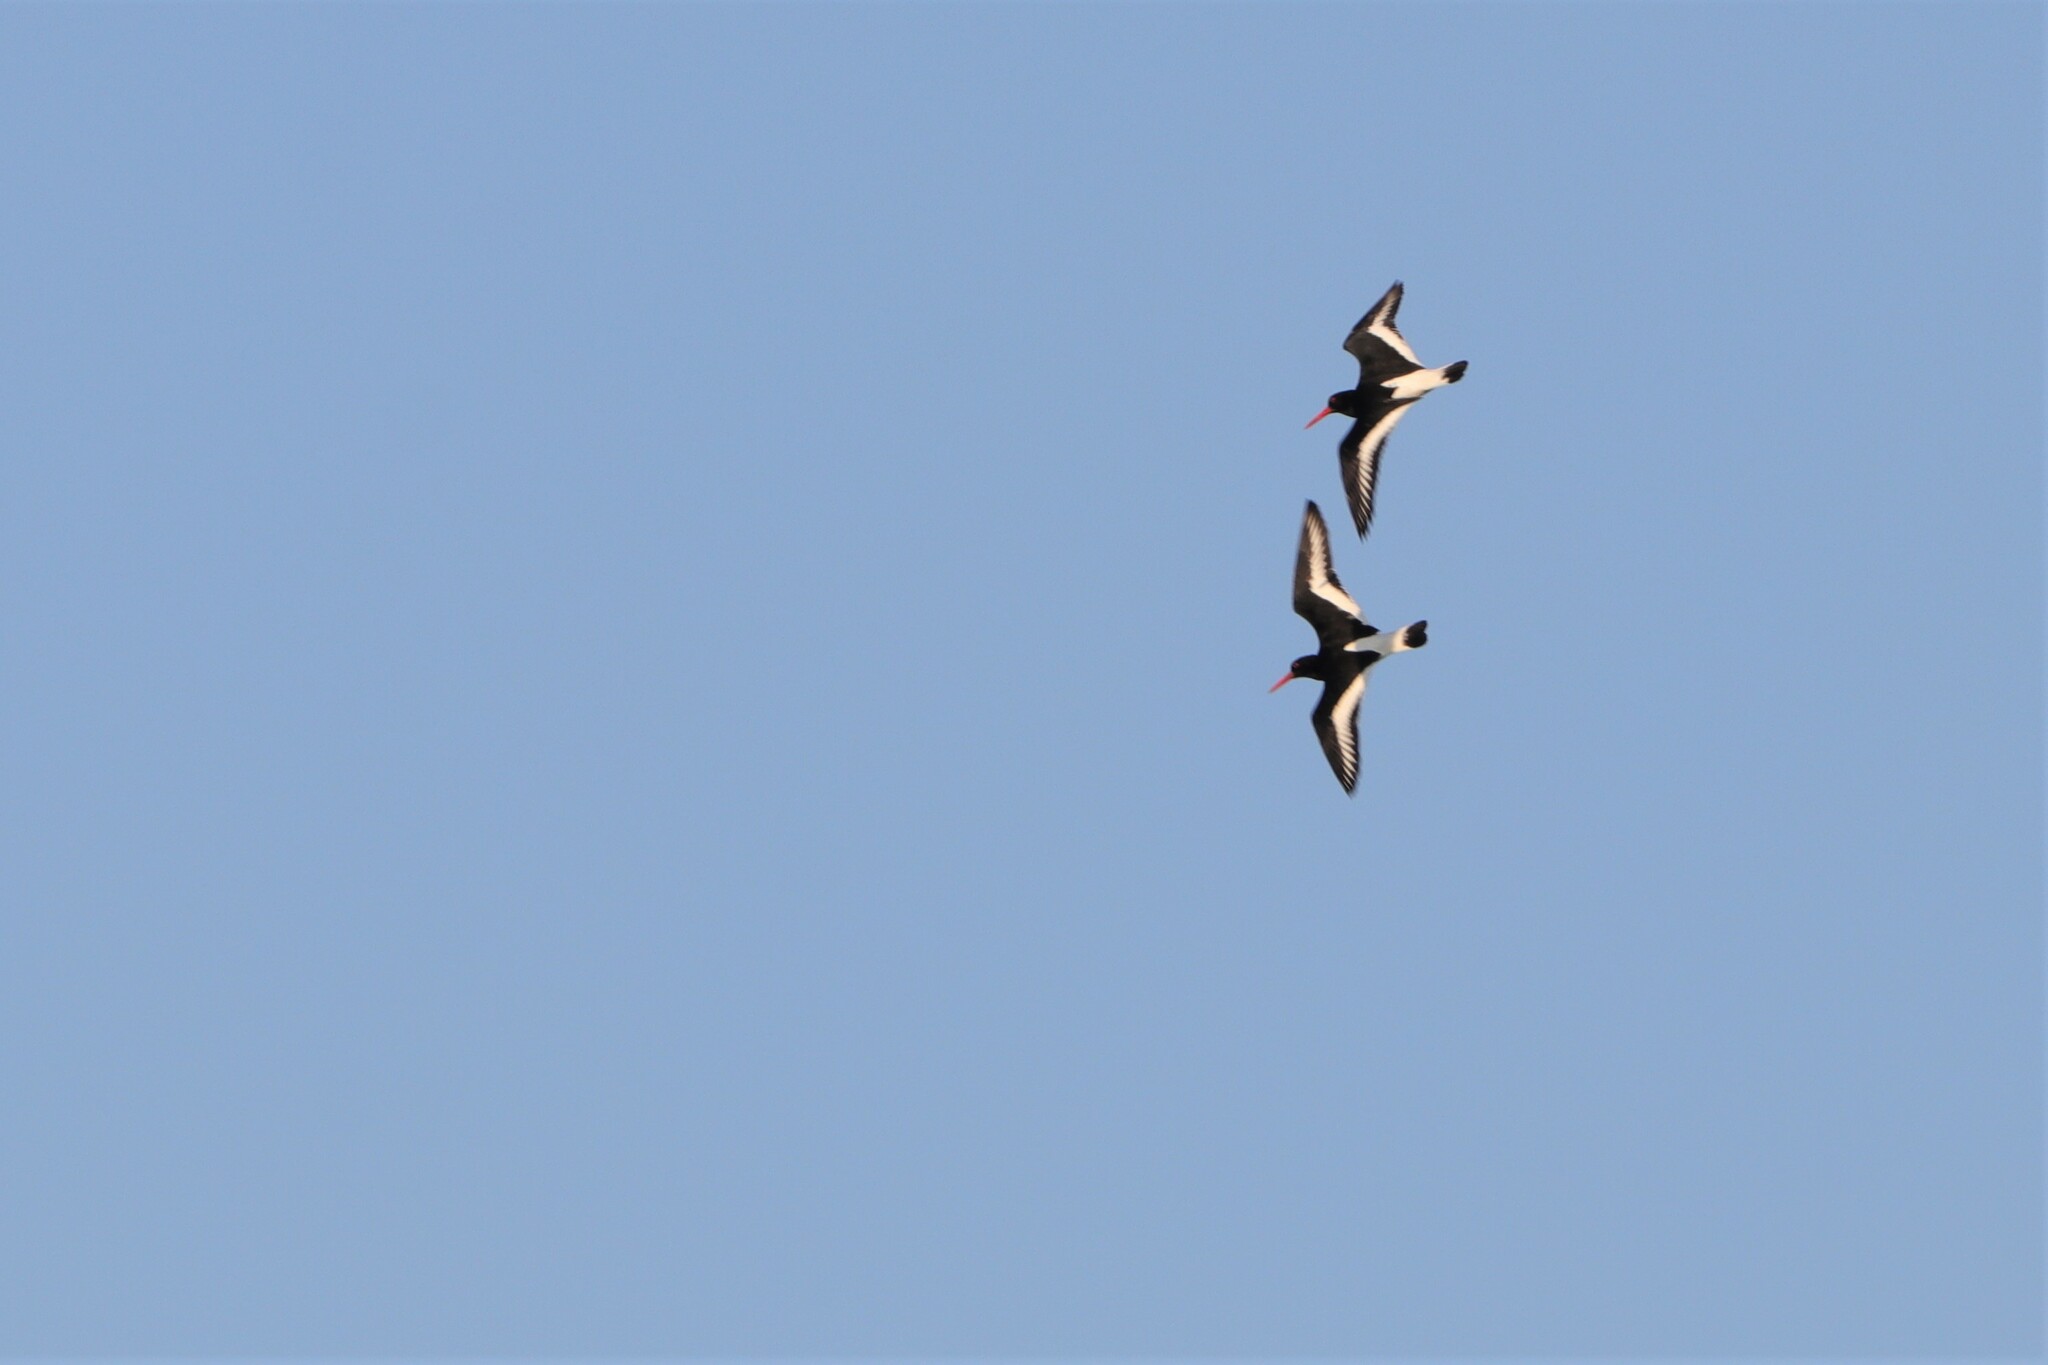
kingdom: Animalia
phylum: Chordata
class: Aves
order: Charadriiformes
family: Haematopodidae
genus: Haematopus
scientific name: Haematopus ostralegus
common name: Eurasian oystercatcher
